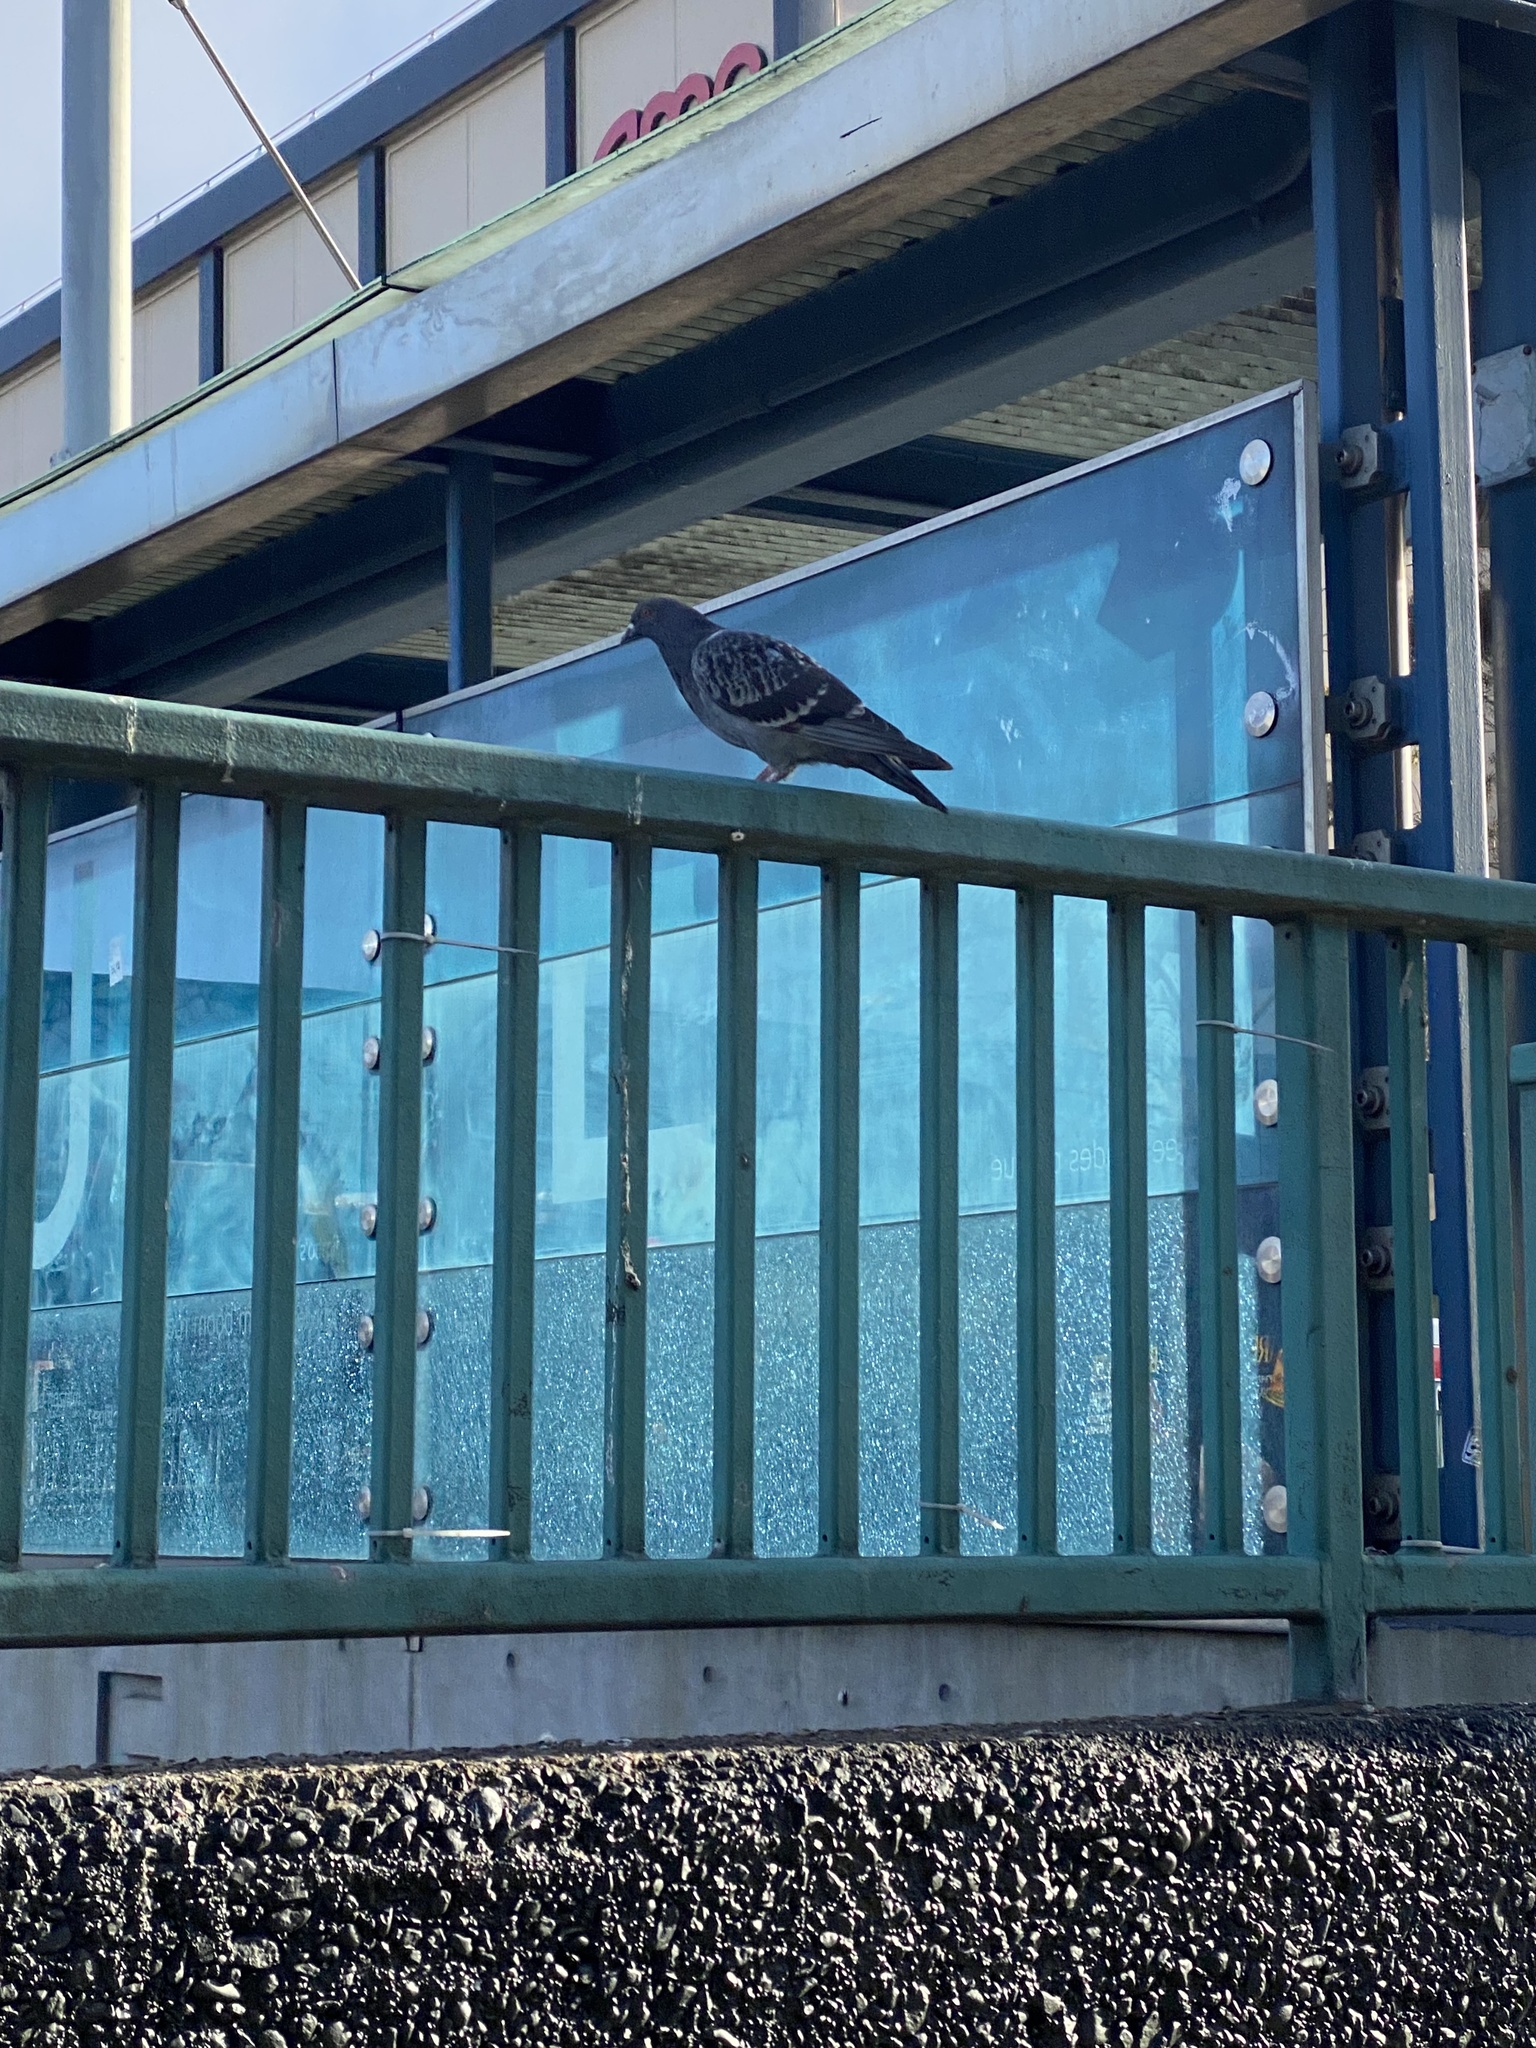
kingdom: Animalia
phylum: Chordata
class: Aves
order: Columbiformes
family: Columbidae
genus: Columba
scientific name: Columba livia
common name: Rock pigeon
